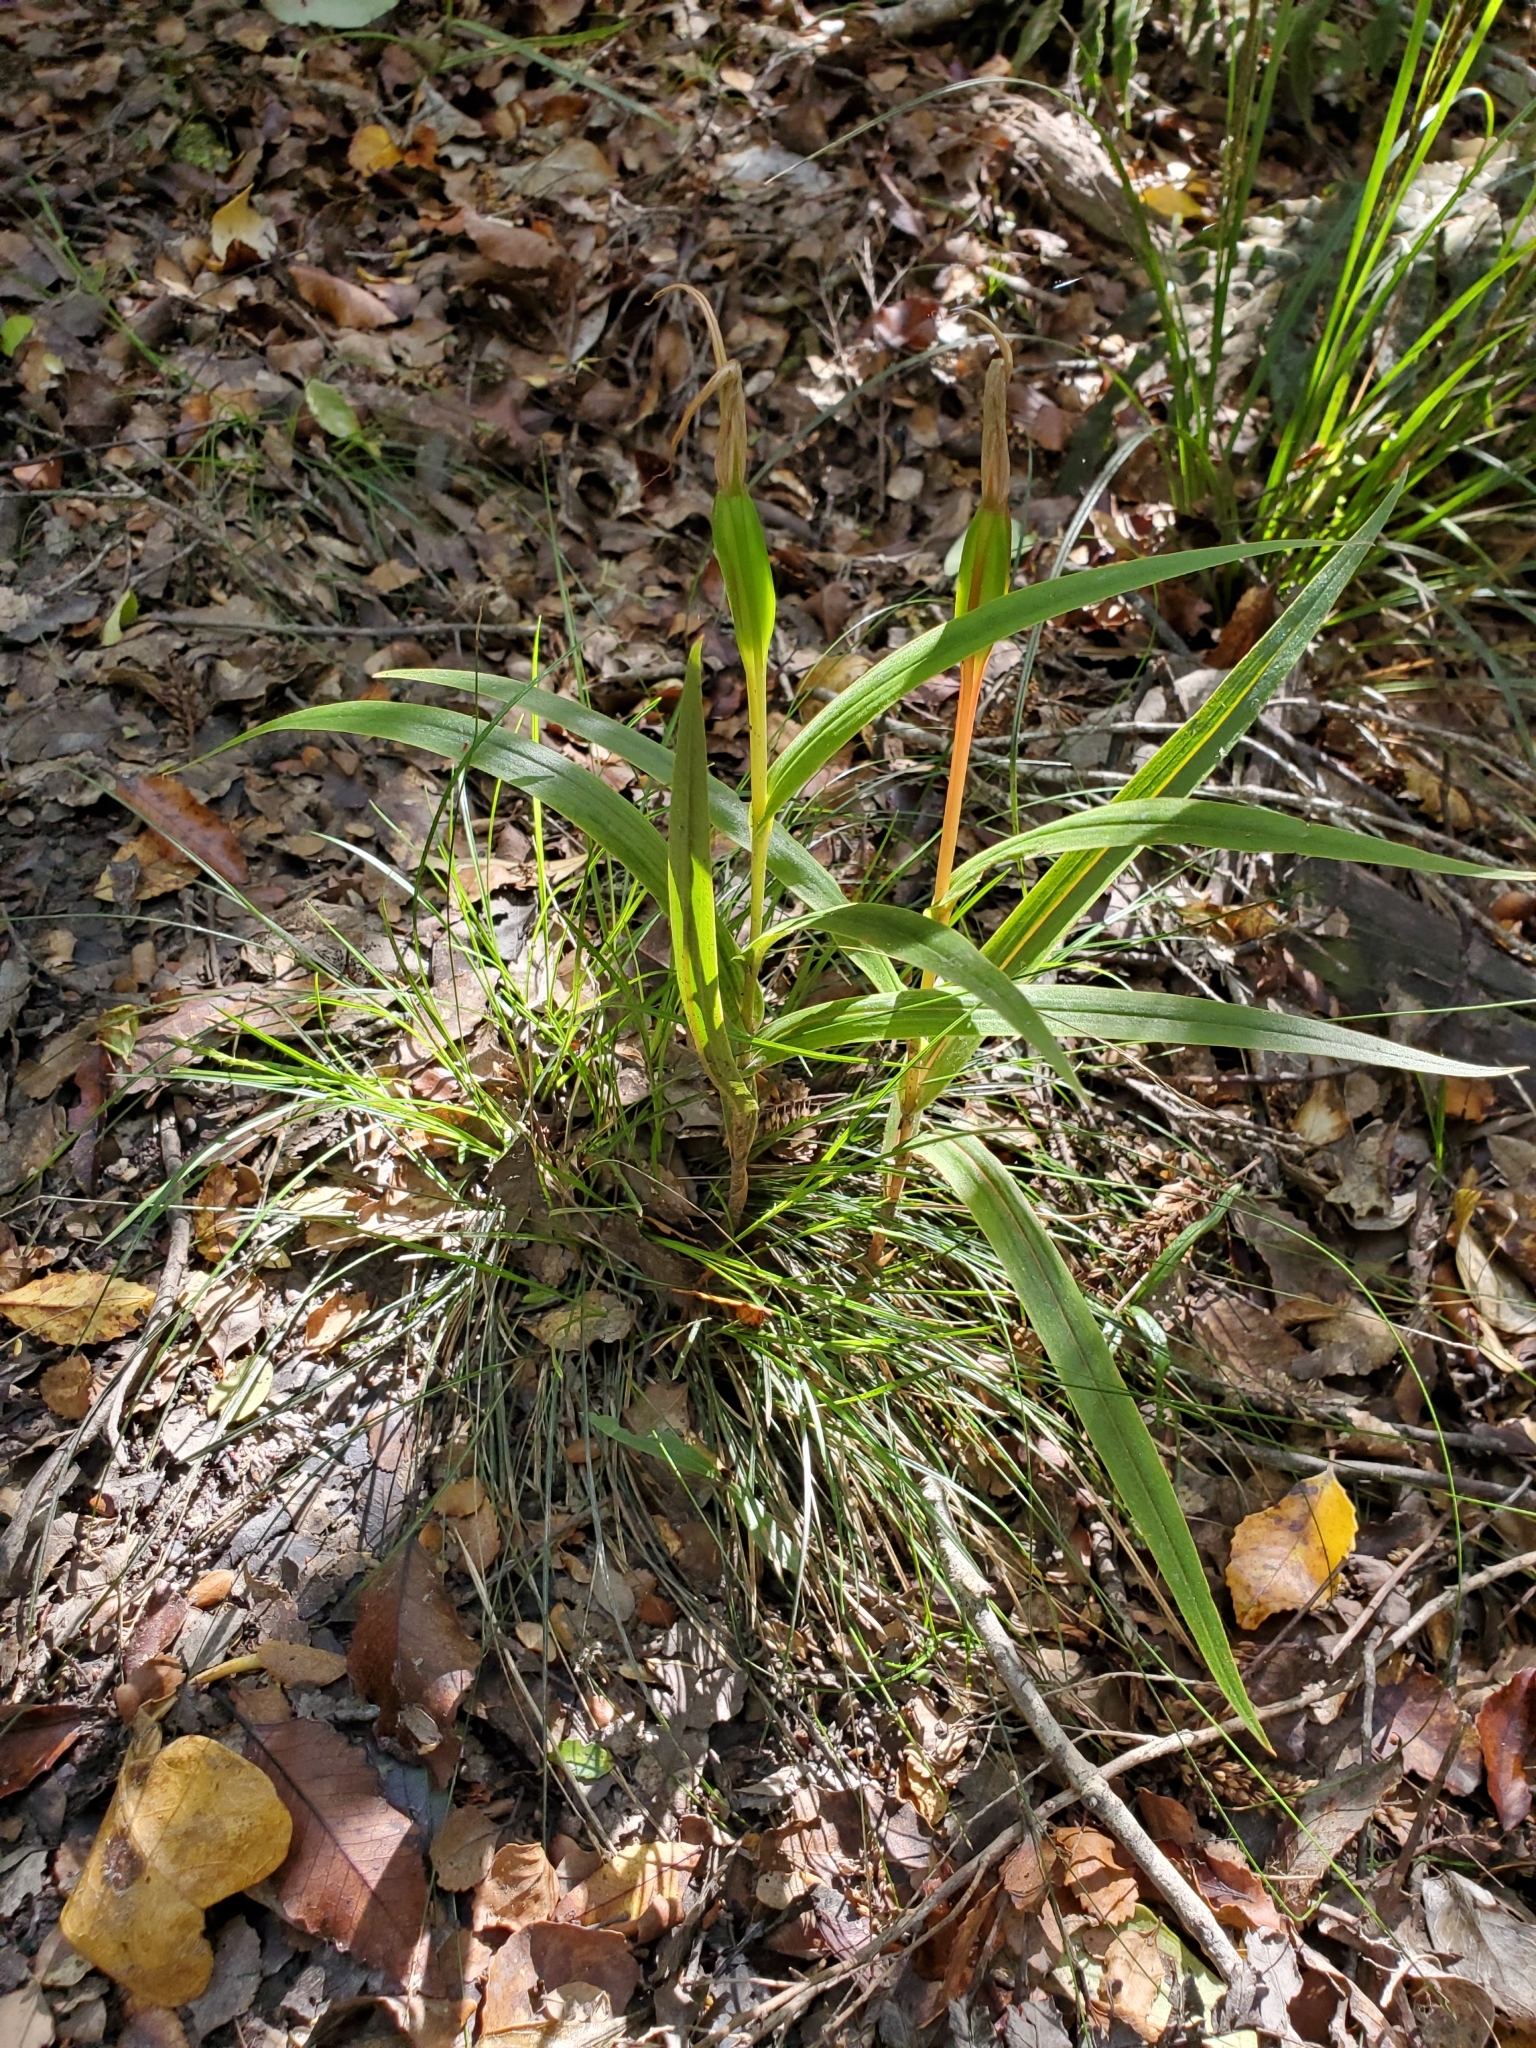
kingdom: Plantae
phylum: Tracheophyta
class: Liliopsida
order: Asparagales
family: Orchidaceae
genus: Pterostylis
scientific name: Pterostylis cardiostigma
